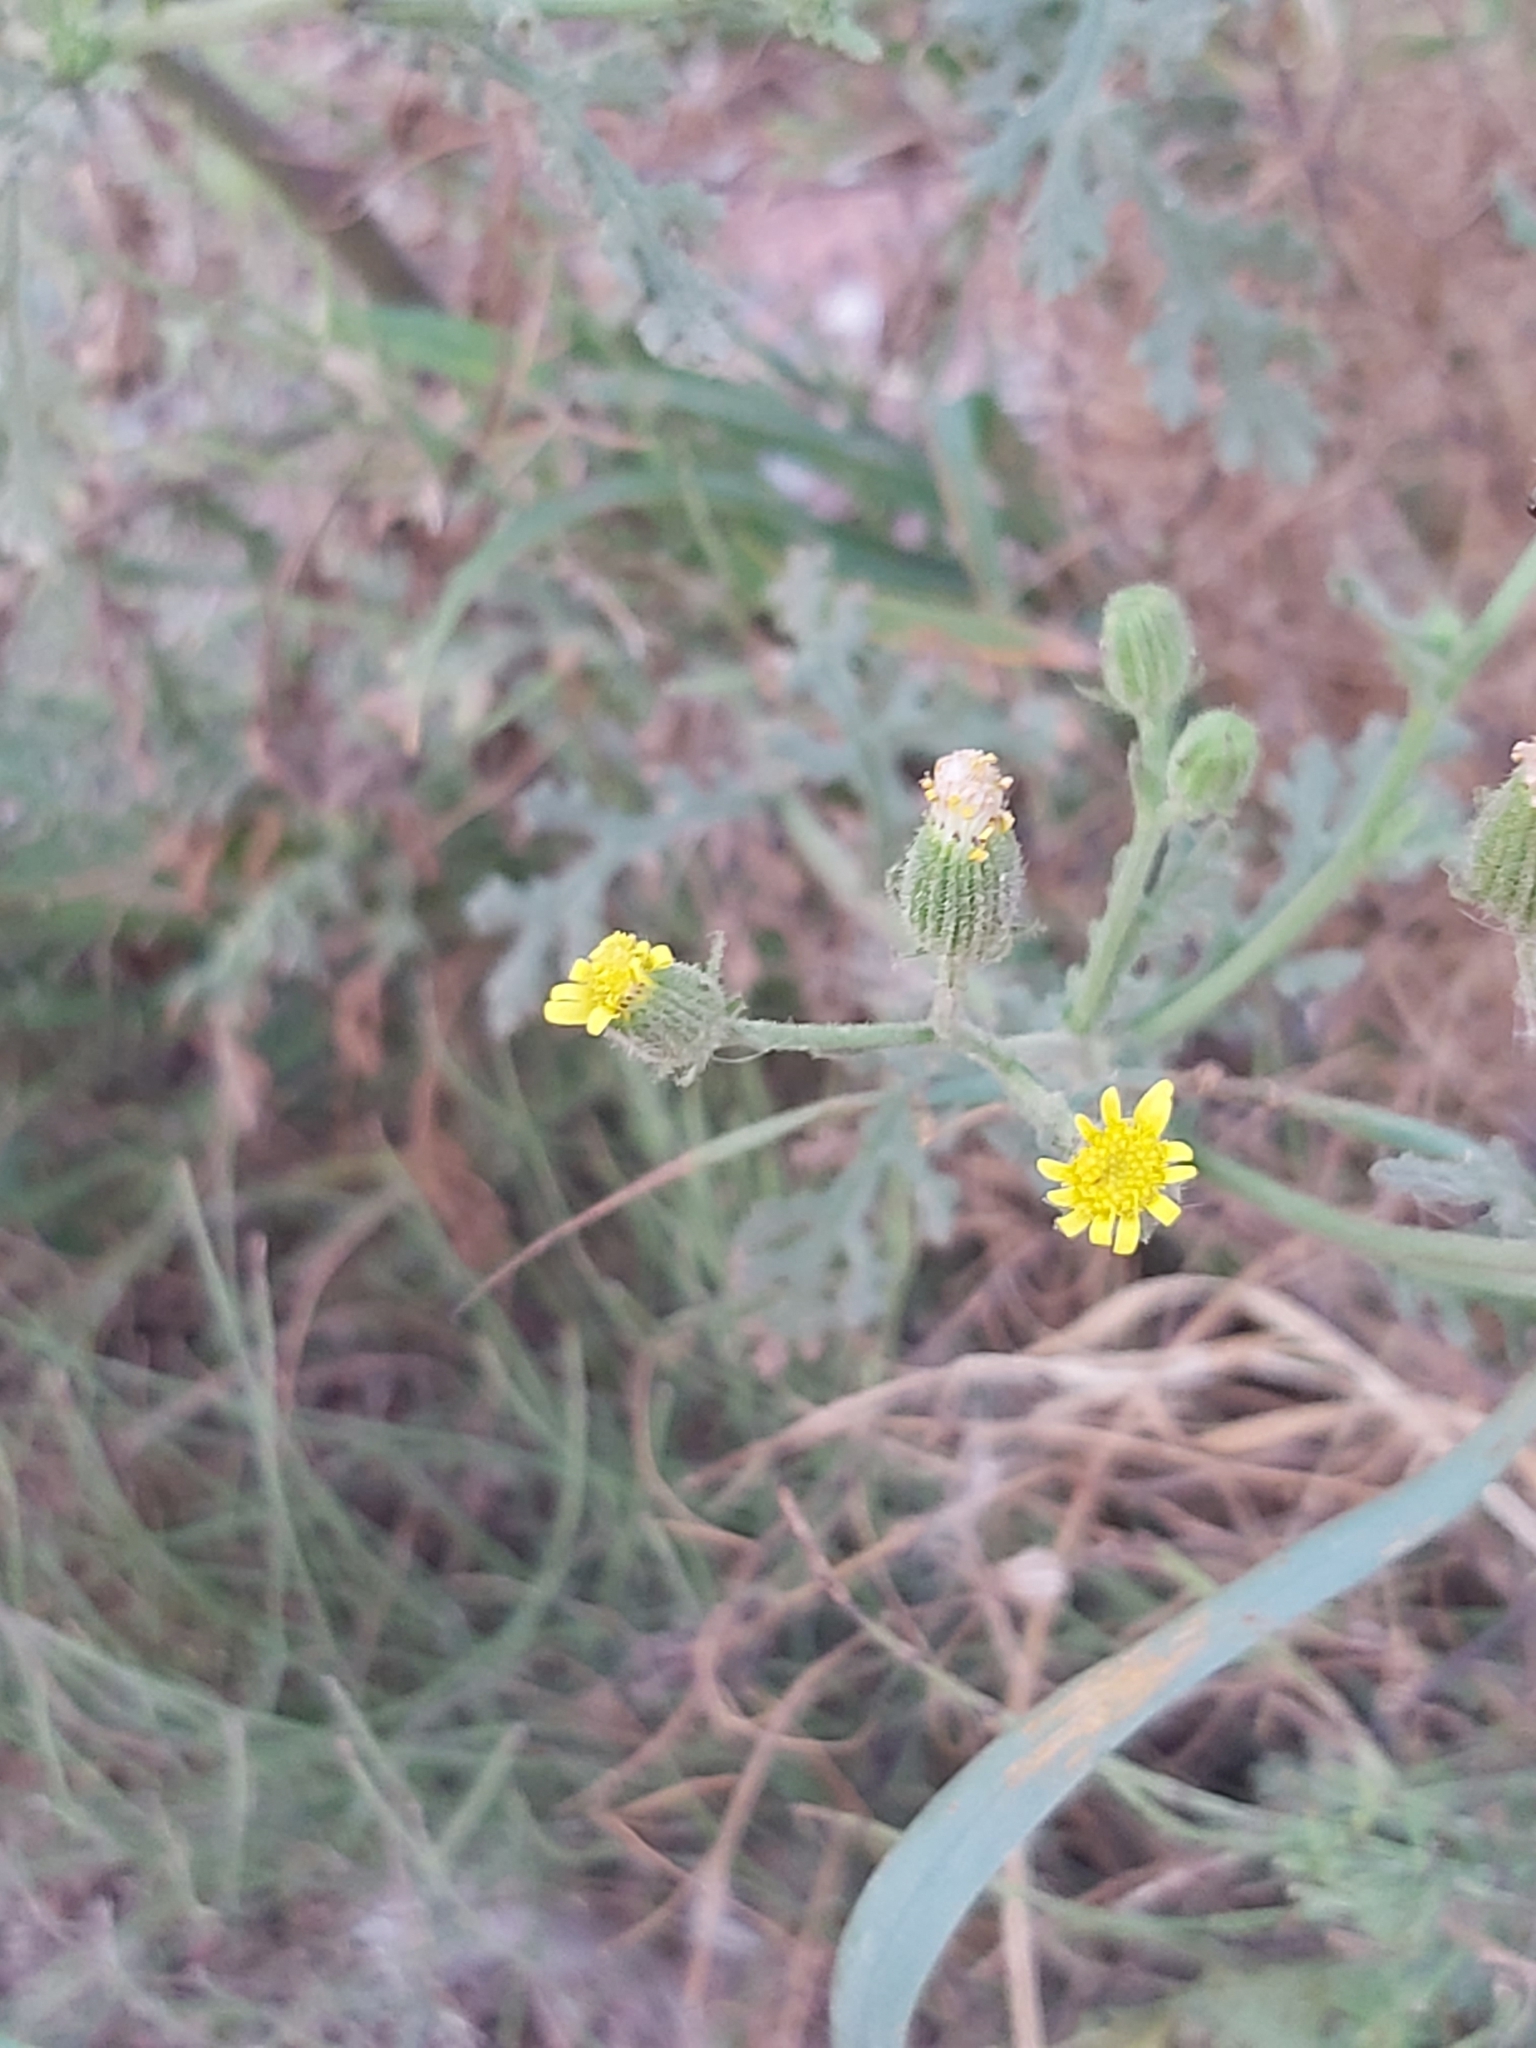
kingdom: Plantae
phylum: Tracheophyta
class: Magnoliopsida
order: Asterales
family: Asteraceae
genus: Senecio
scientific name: Senecio viscosus
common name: Sticky groundsel
